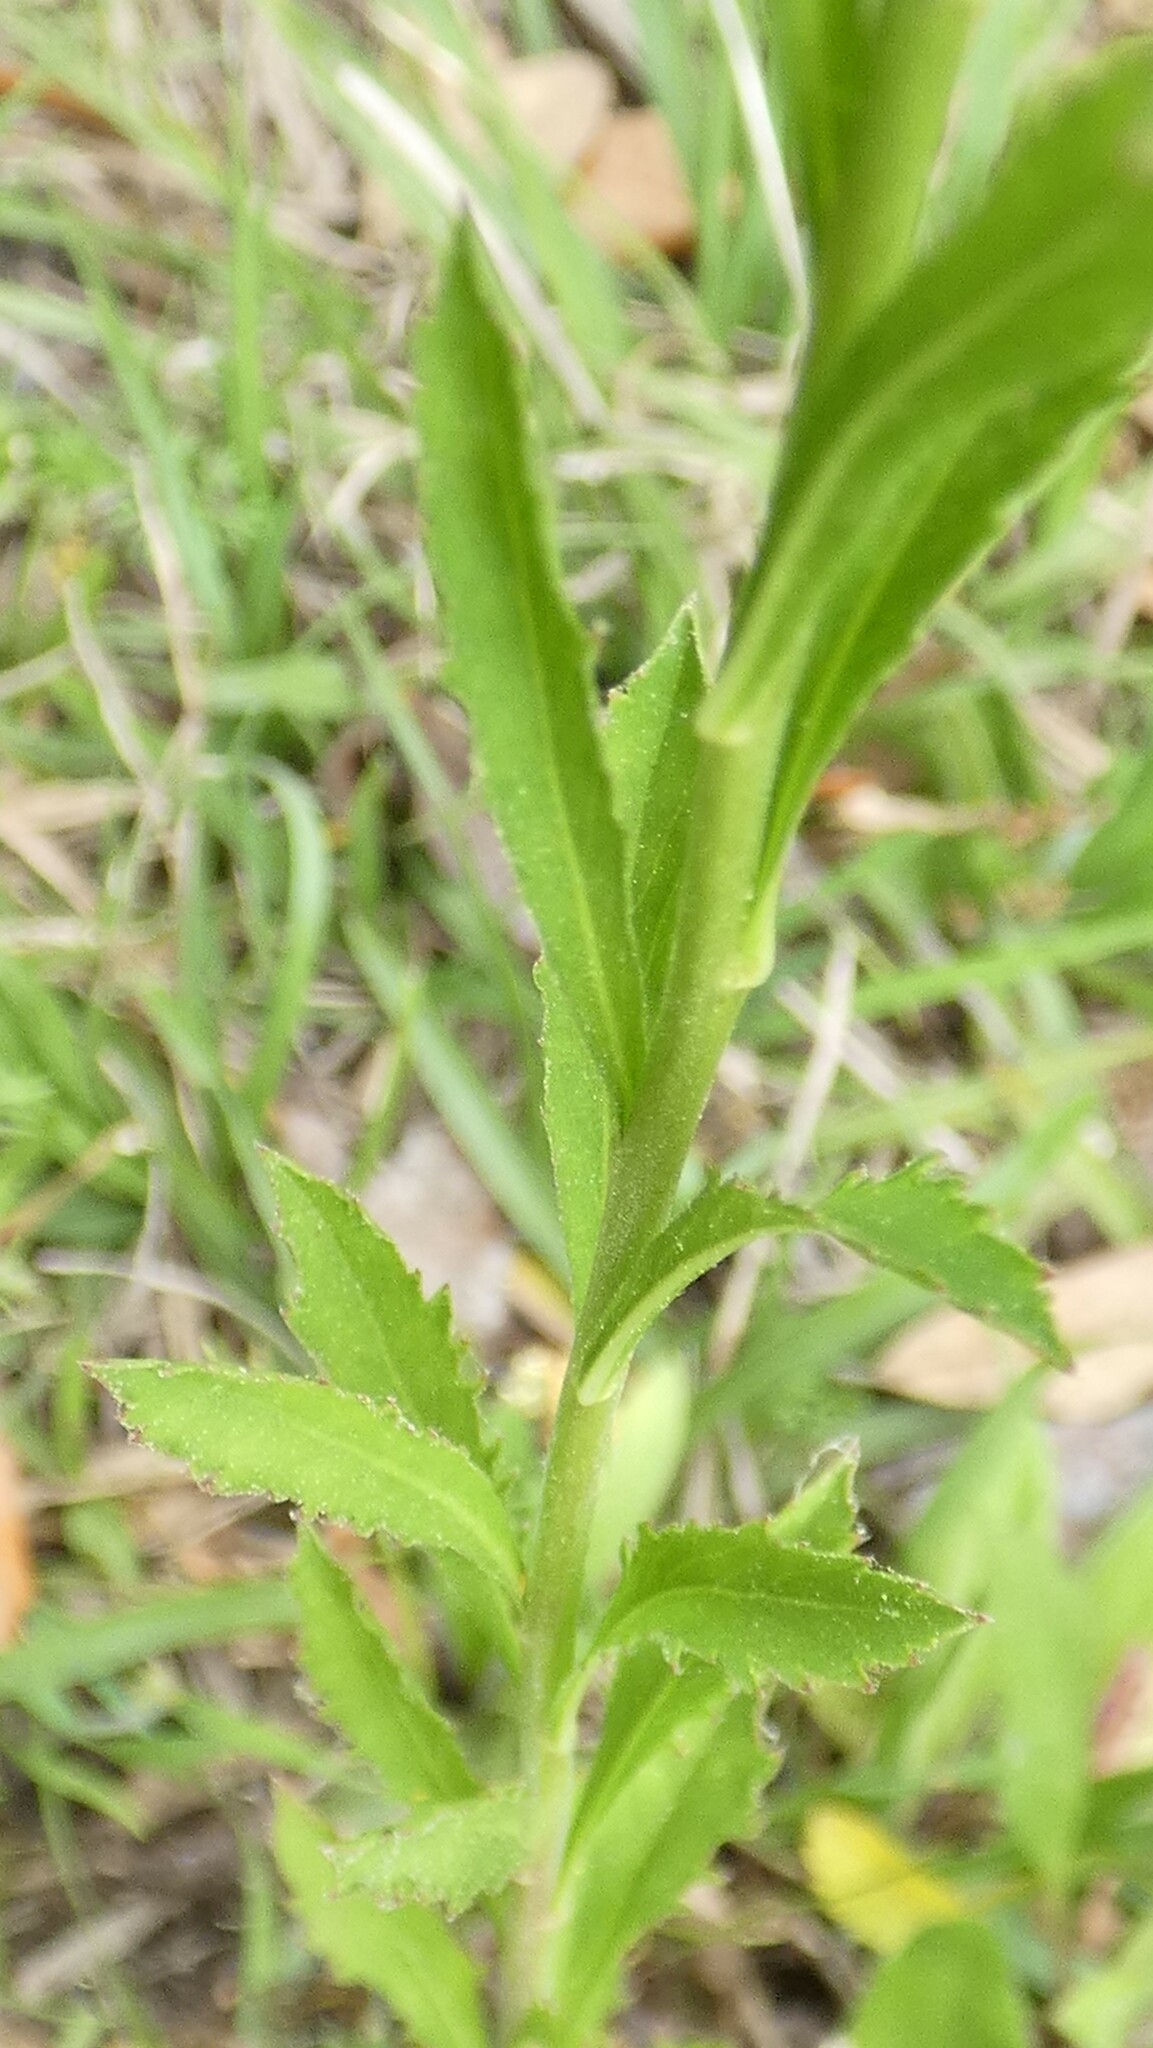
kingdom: Plantae
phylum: Tracheophyta
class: Magnoliopsida
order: Brassicales
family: Brassicaceae
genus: Lepidium
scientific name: Lepidium virginicum
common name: Least pepperwort
